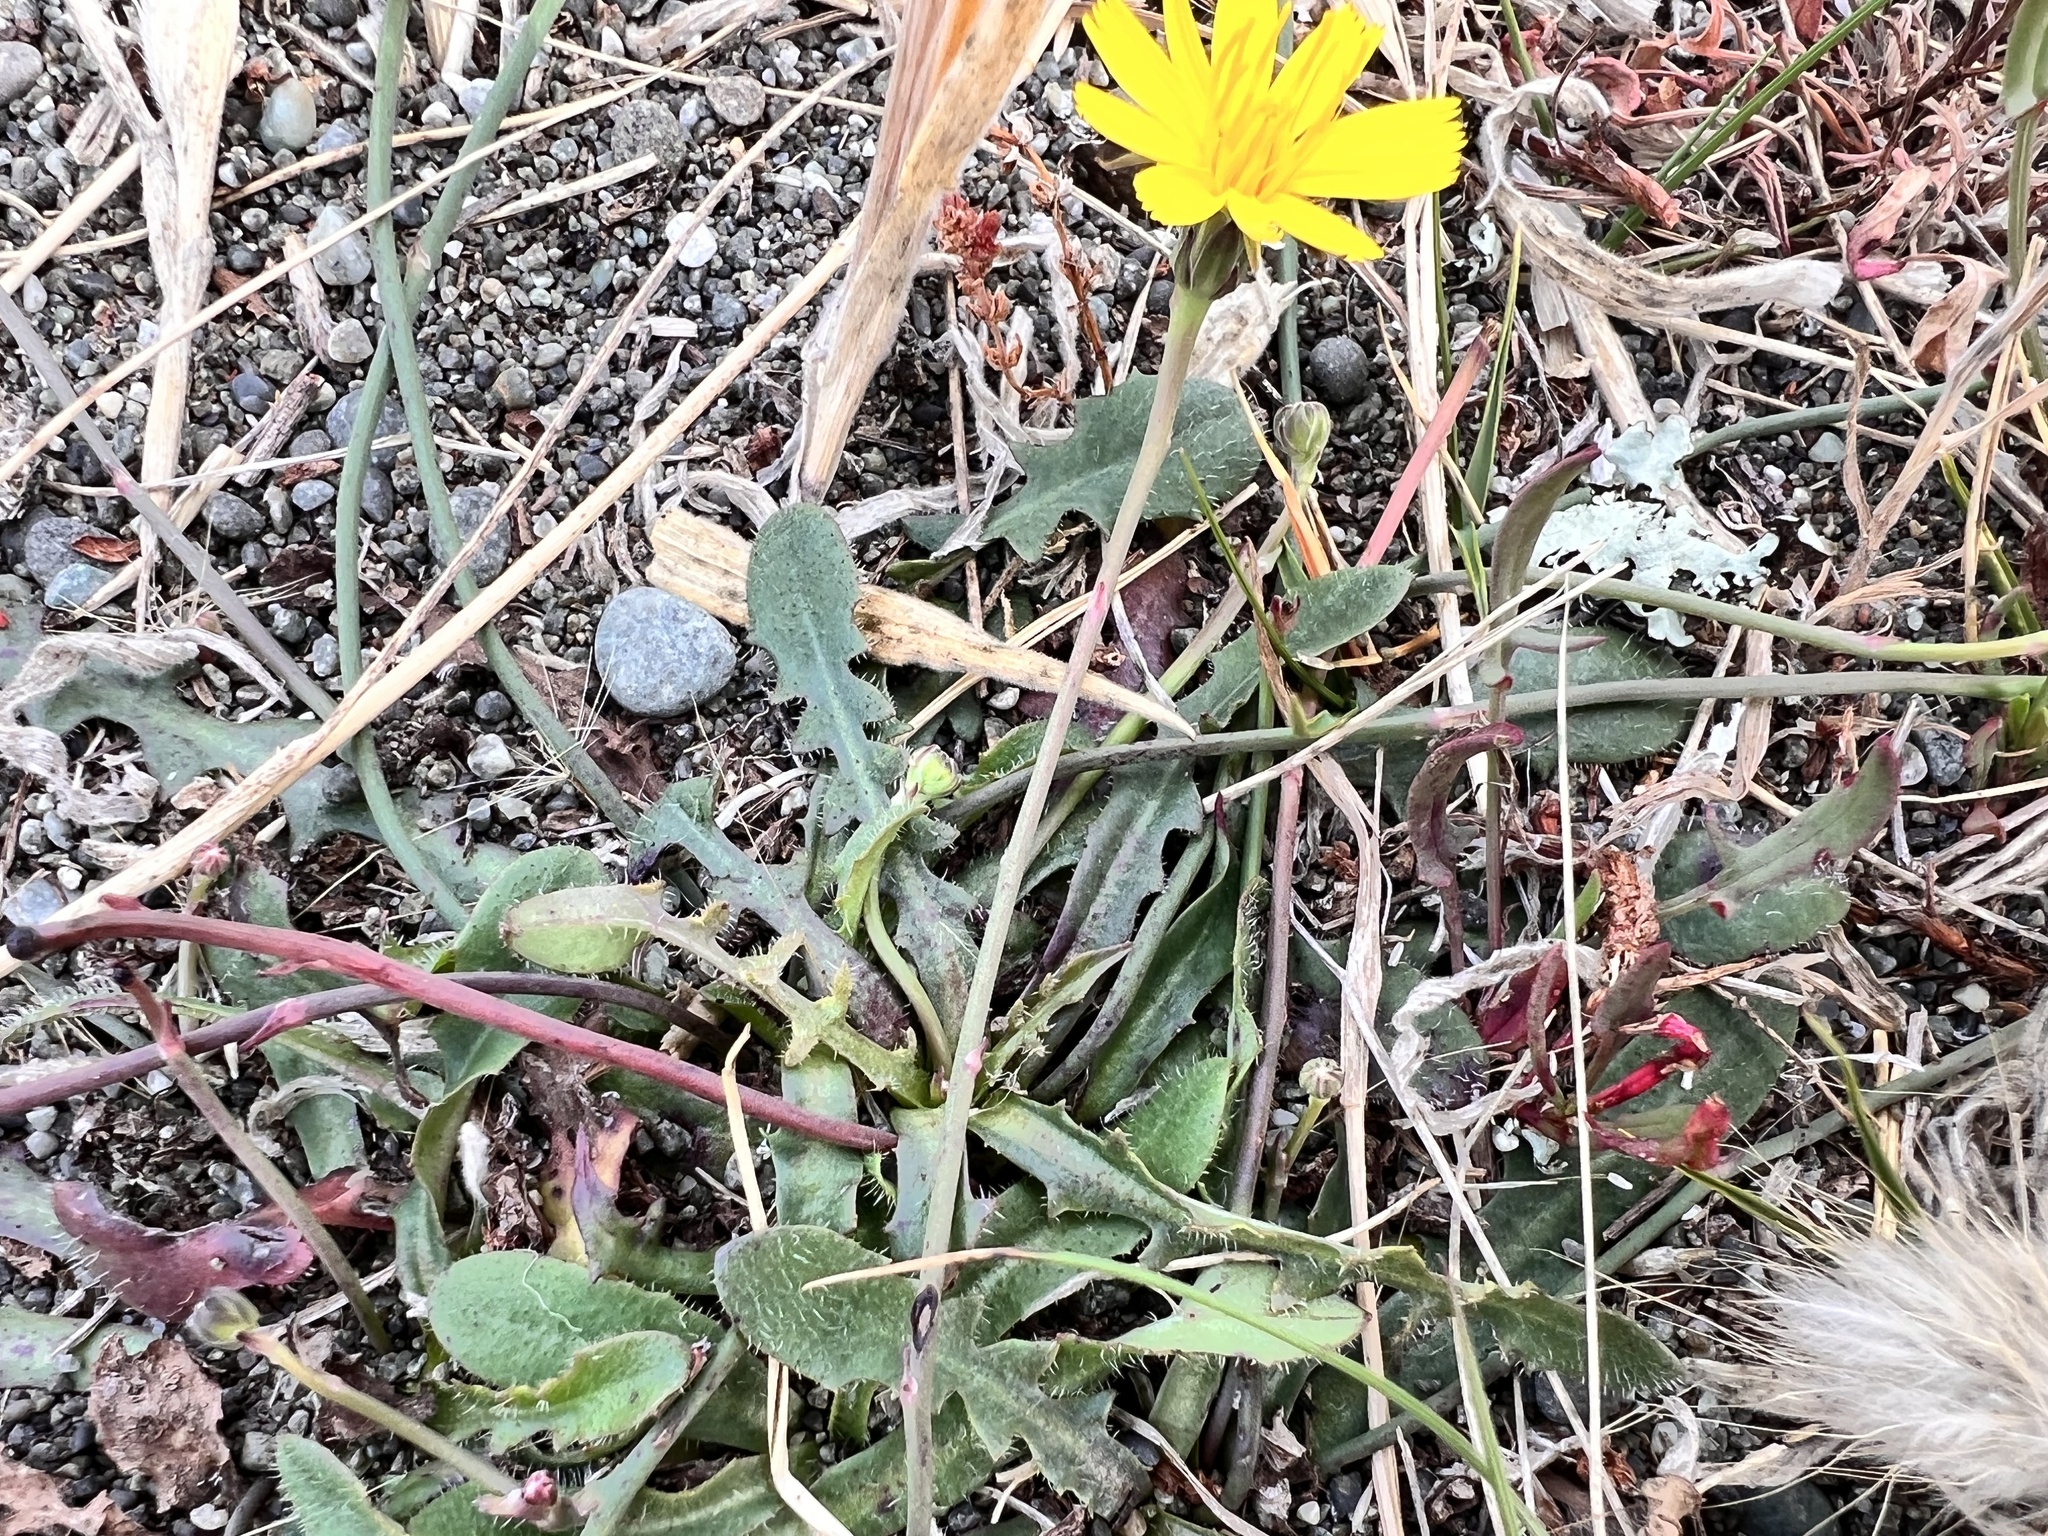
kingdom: Plantae
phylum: Tracheophyta
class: Magnoliopsida
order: Asterales
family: Asteraceae
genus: Hypochaeris
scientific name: Hypochaeris radicata
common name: Flatweed
